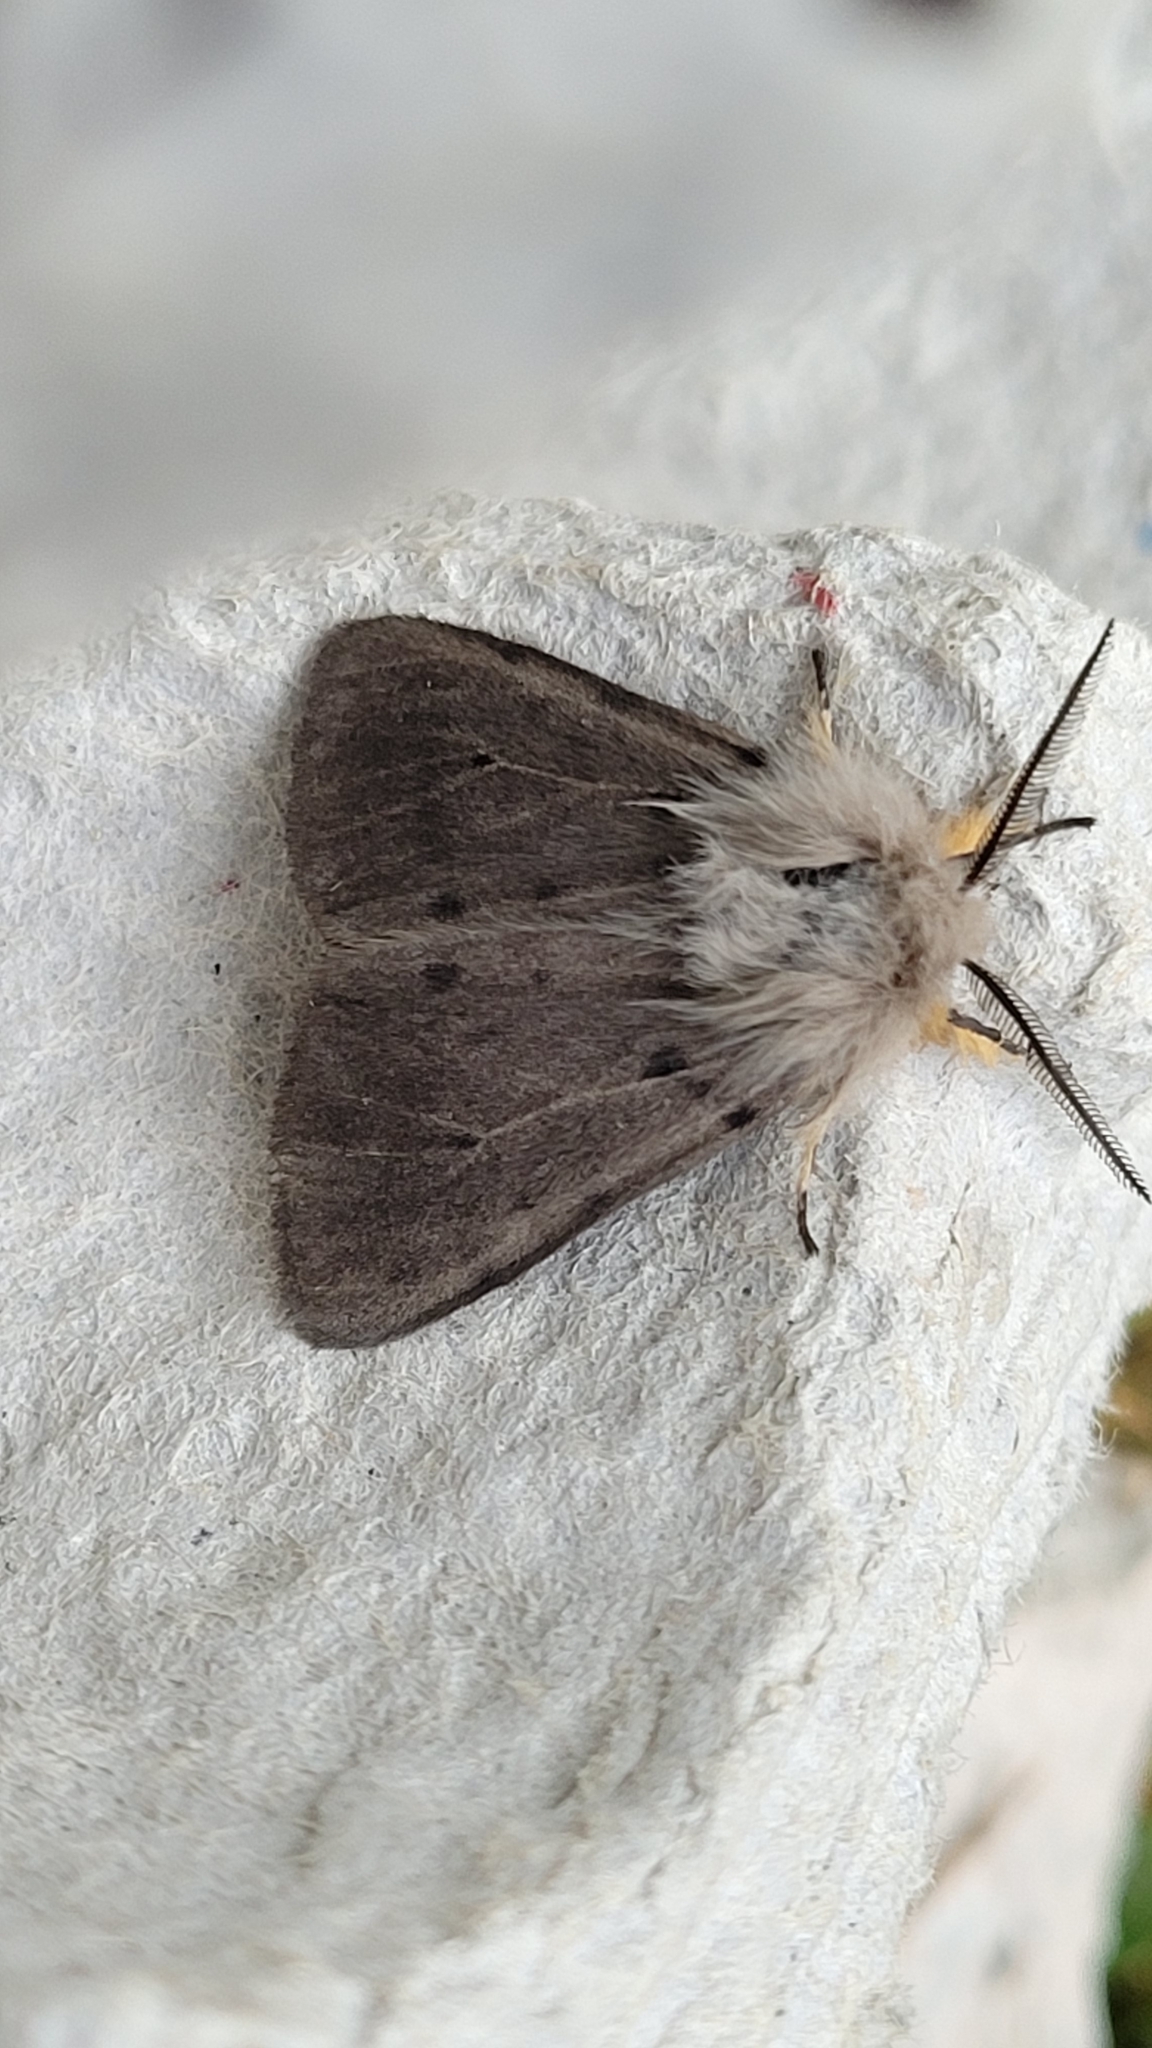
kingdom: Animalia
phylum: Arthropoda
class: Insecta
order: Lepidoptera
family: Erebidae
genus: Diaphora
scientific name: Diaphora mendica
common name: Muslin moth
